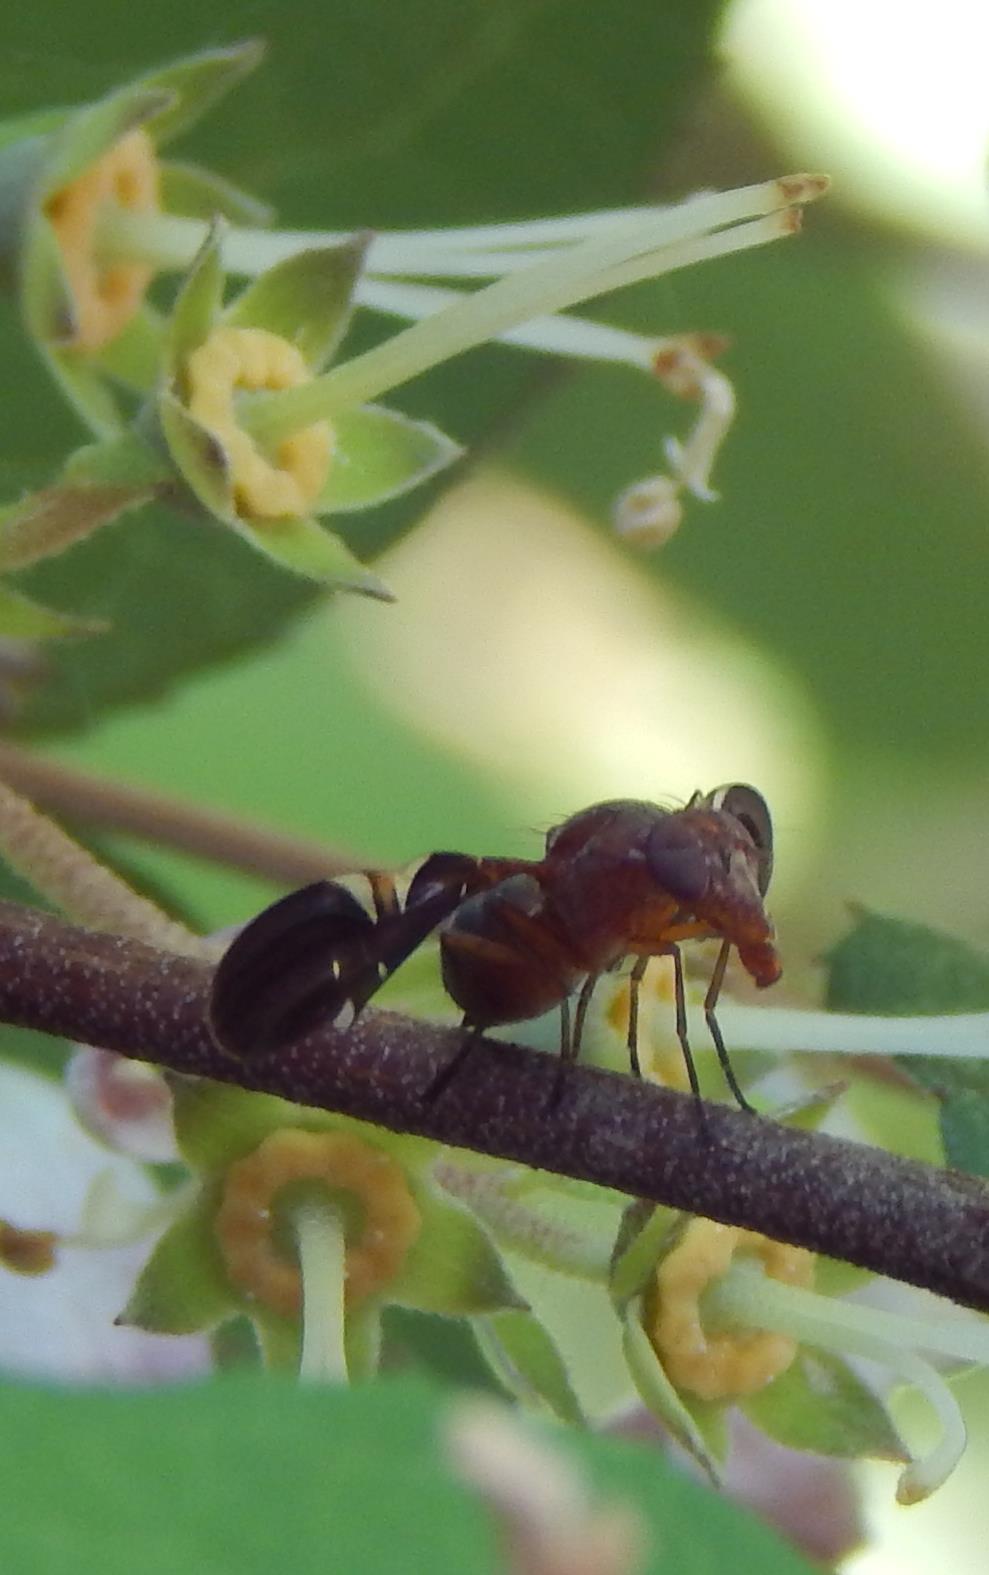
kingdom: Animalia
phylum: Arthropoda
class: Insecta
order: Diptera
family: Ulidiidae
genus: Delphinia
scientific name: Delphinia picta
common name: Common picture-winged fly
